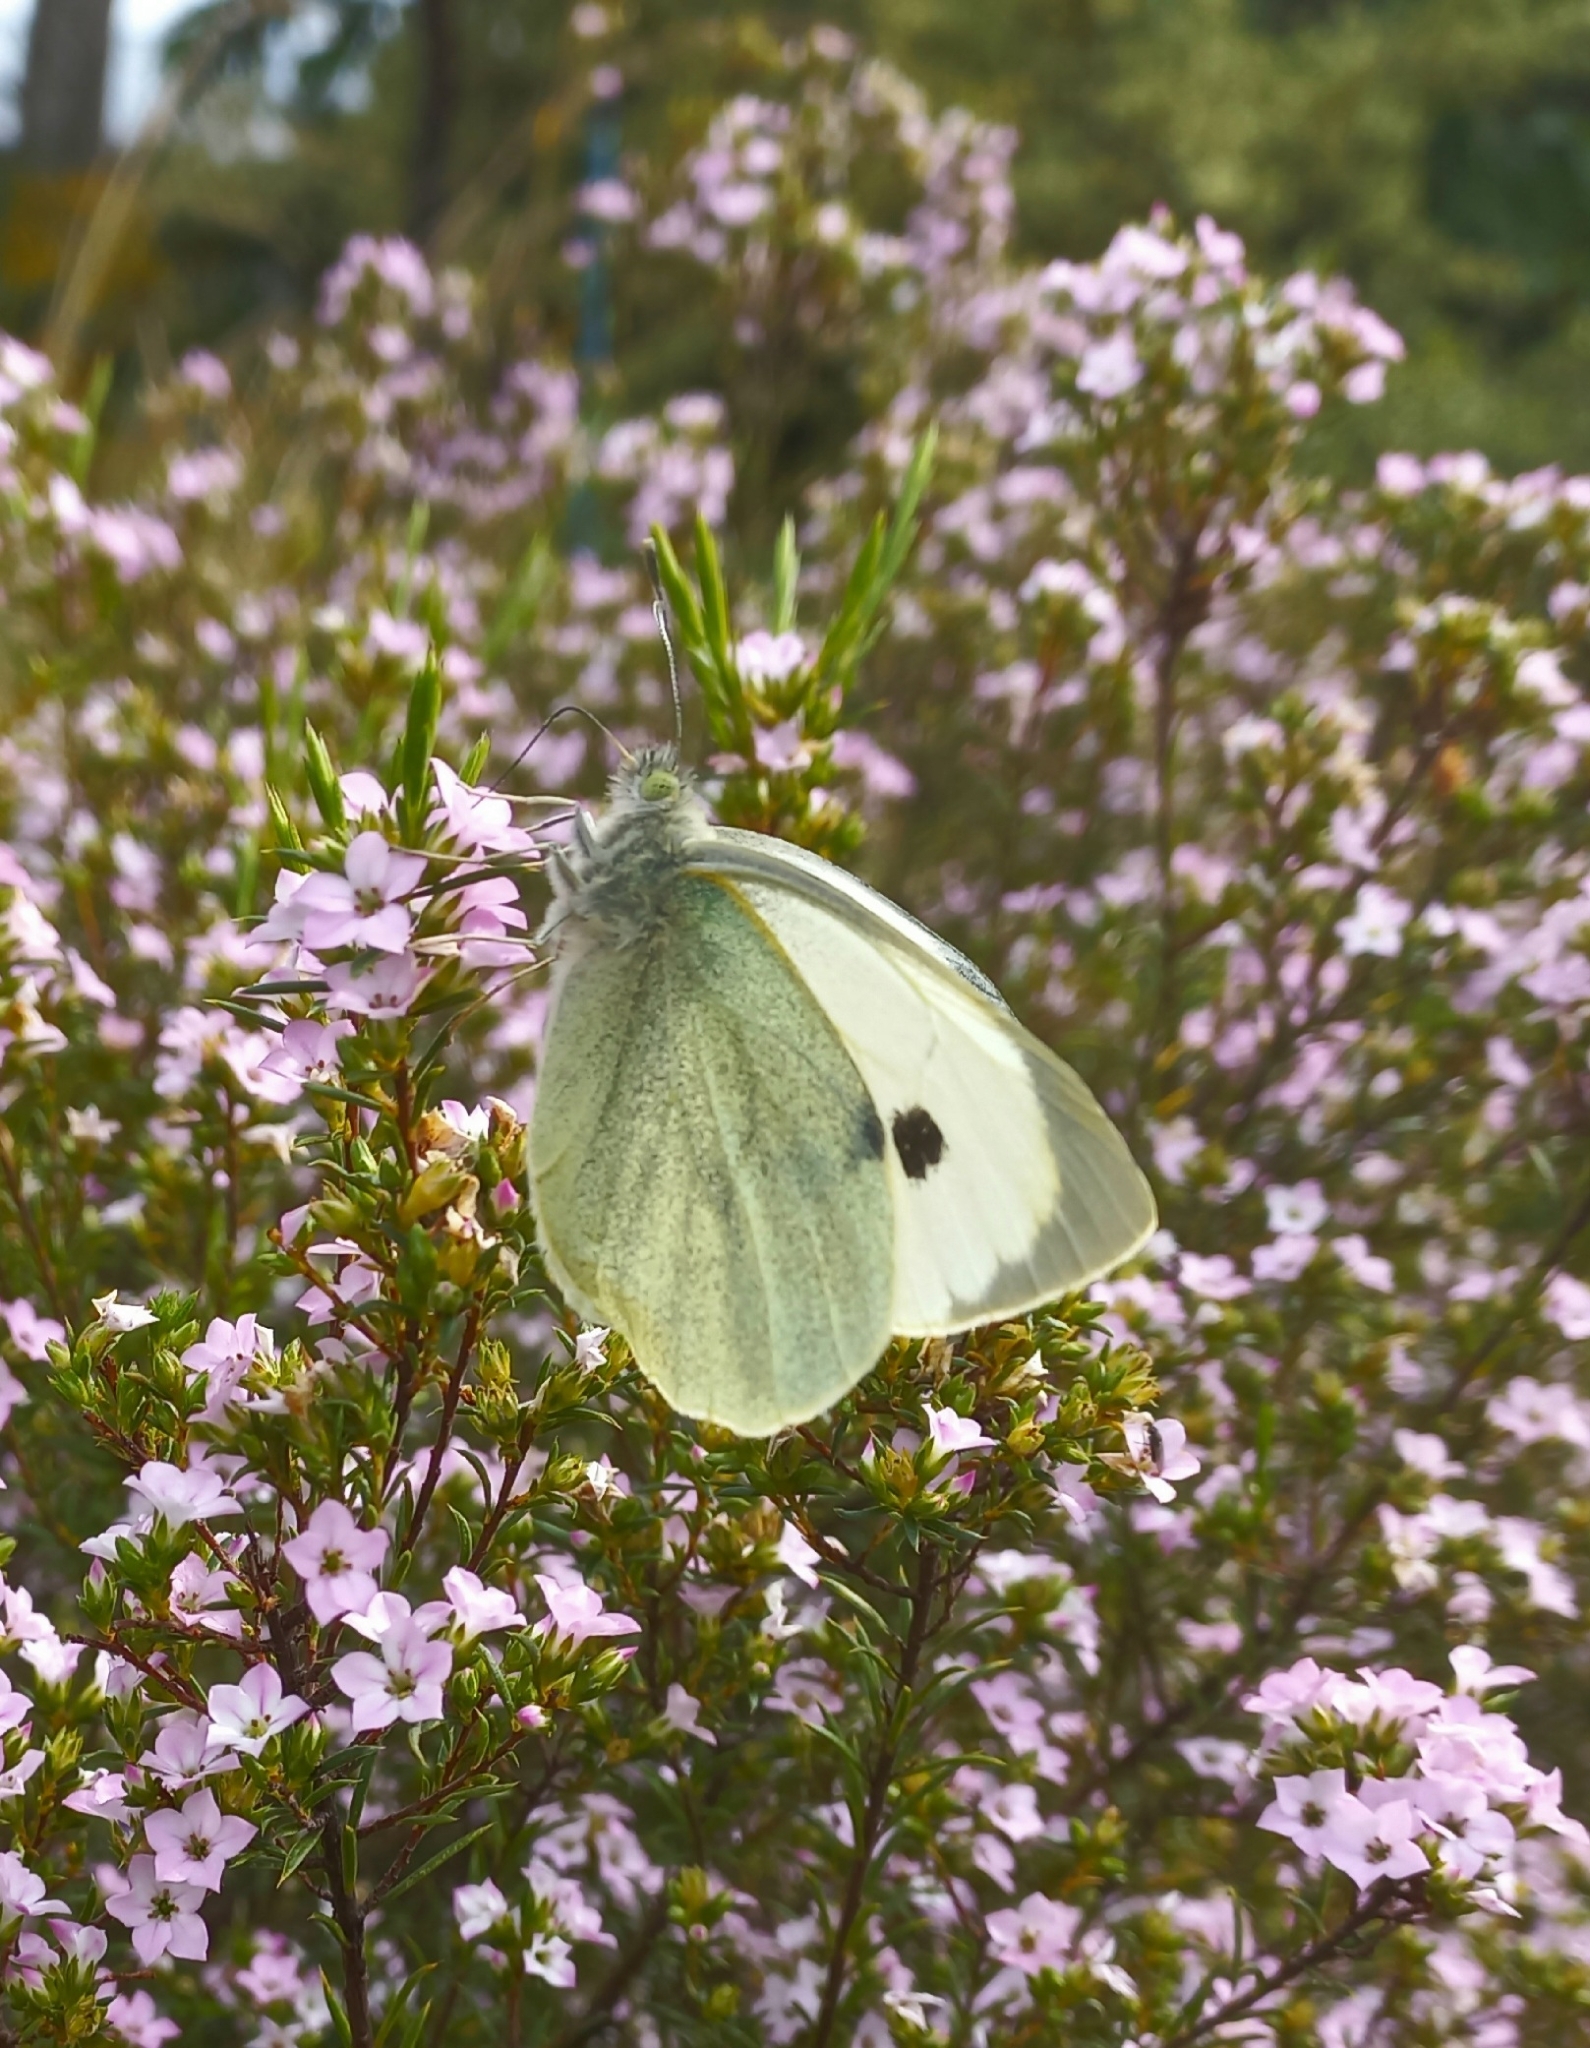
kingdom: Animalia
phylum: Arthropoda
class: Insecta
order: Lepidoptera
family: Pieridae
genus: Pieris
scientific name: Pieris brassicae
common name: Large white
